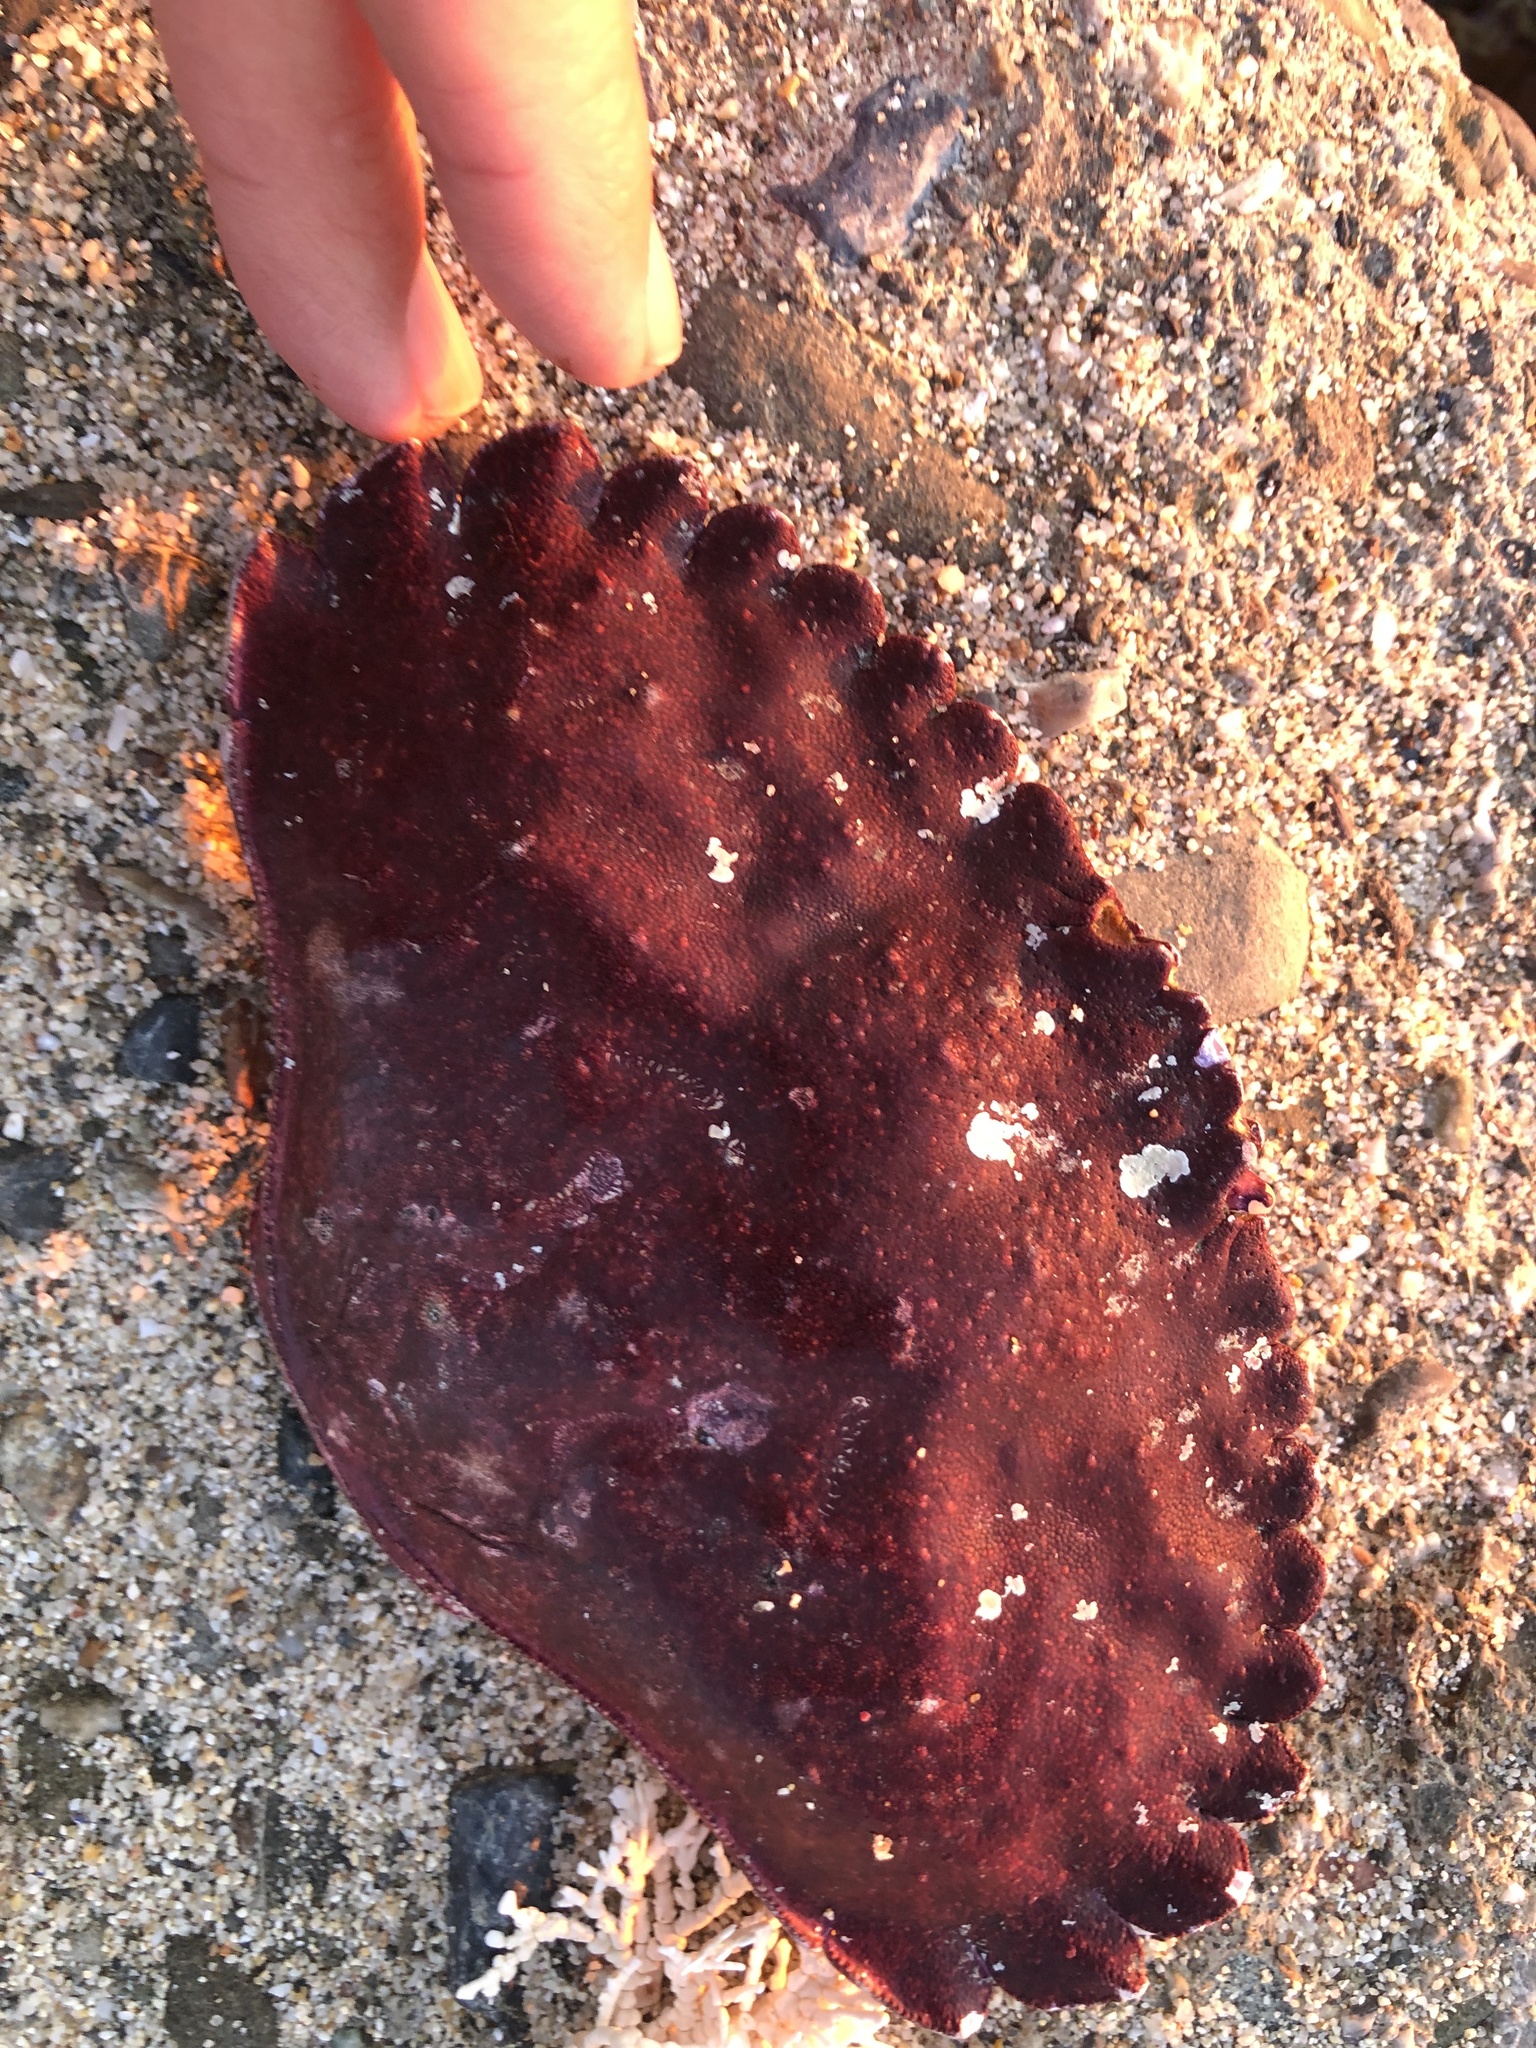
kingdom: Animalia
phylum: Arthropoda
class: Malacostraca
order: Decapoda
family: Cancridae
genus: Cancer
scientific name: Cancer productus
